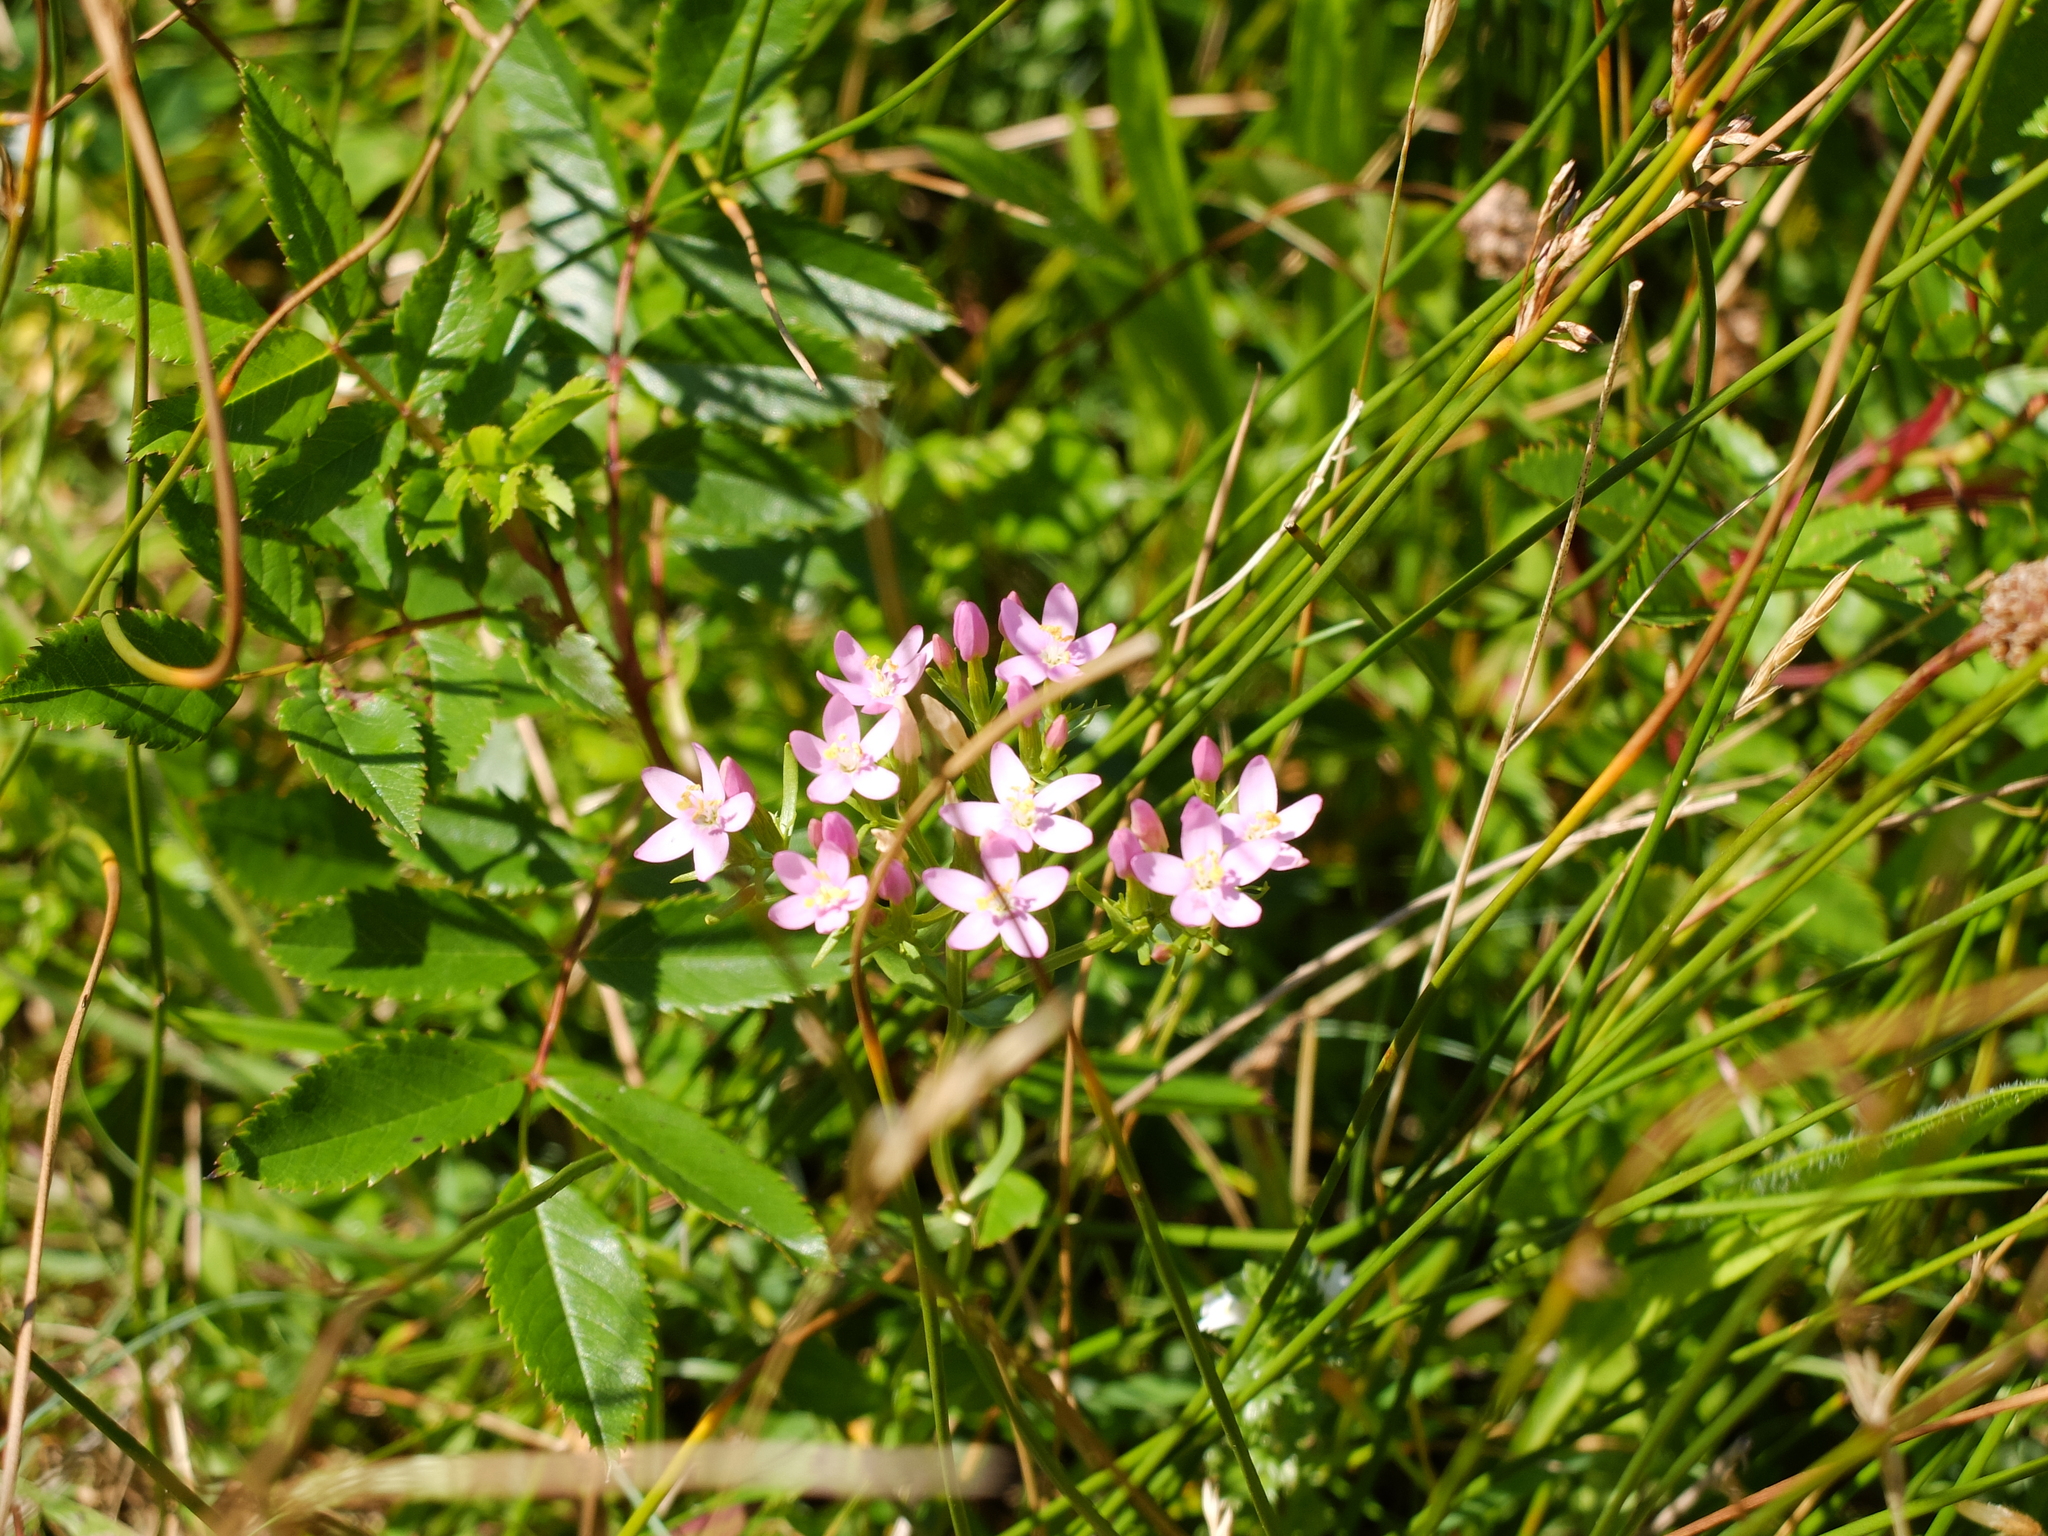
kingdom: Plantae
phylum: Tracheophyta
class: Magnoliopsida
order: Gentianales
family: Gentianaceae
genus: Centaurium
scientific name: Centaurium erythraea
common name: Common centaury
